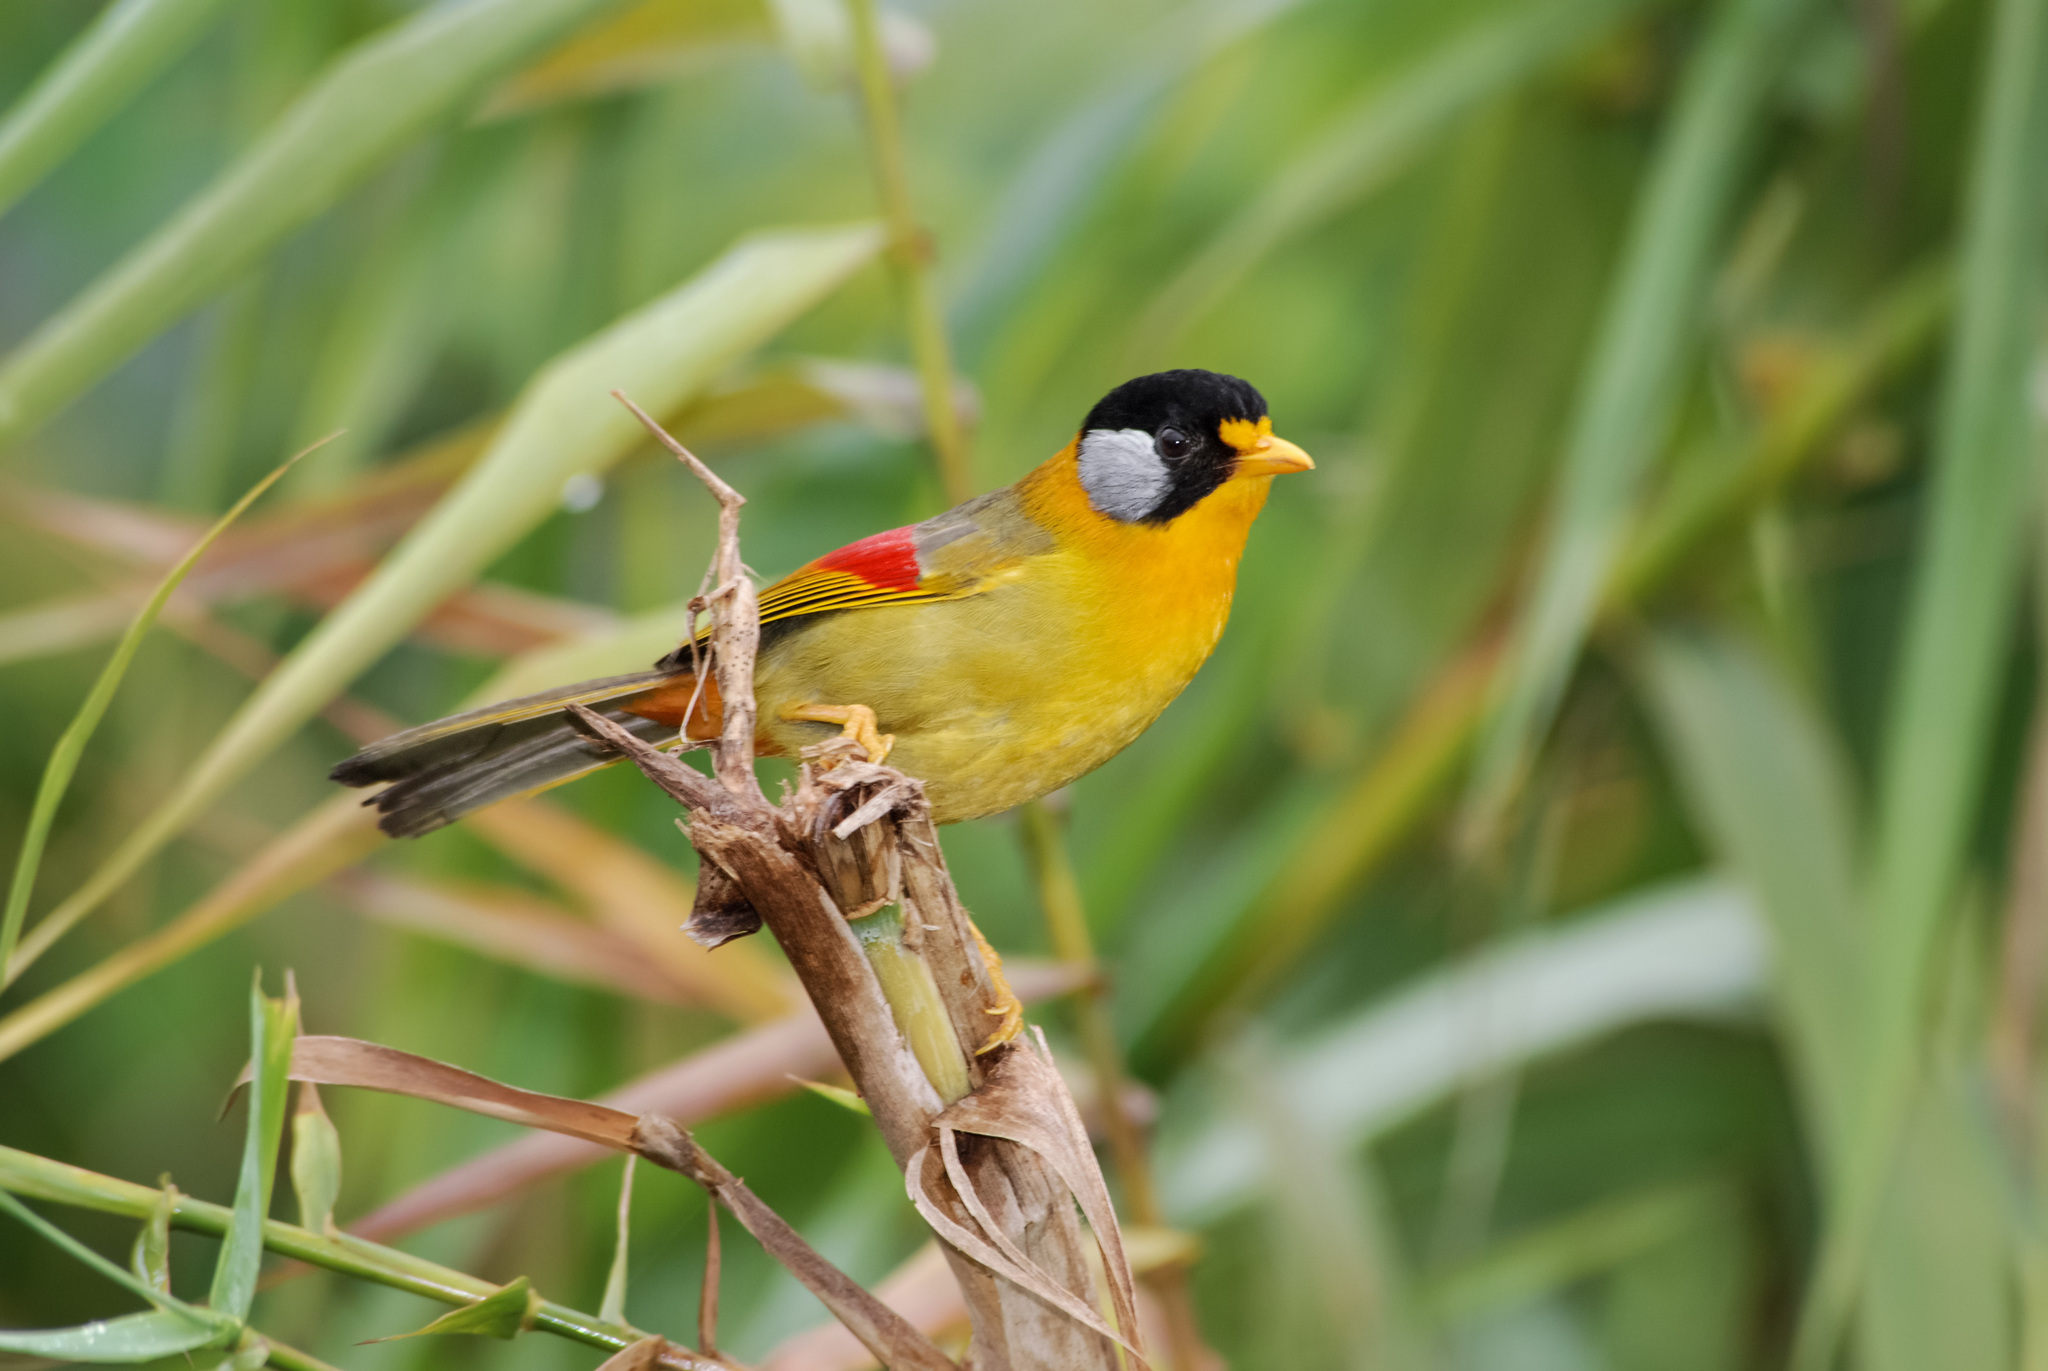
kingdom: Animalia
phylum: Chordata
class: Aves
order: Passeriformes
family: Leiothrichidae
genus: Leiothrix
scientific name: Leiothrix argentauris
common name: Silver-eared mesia
